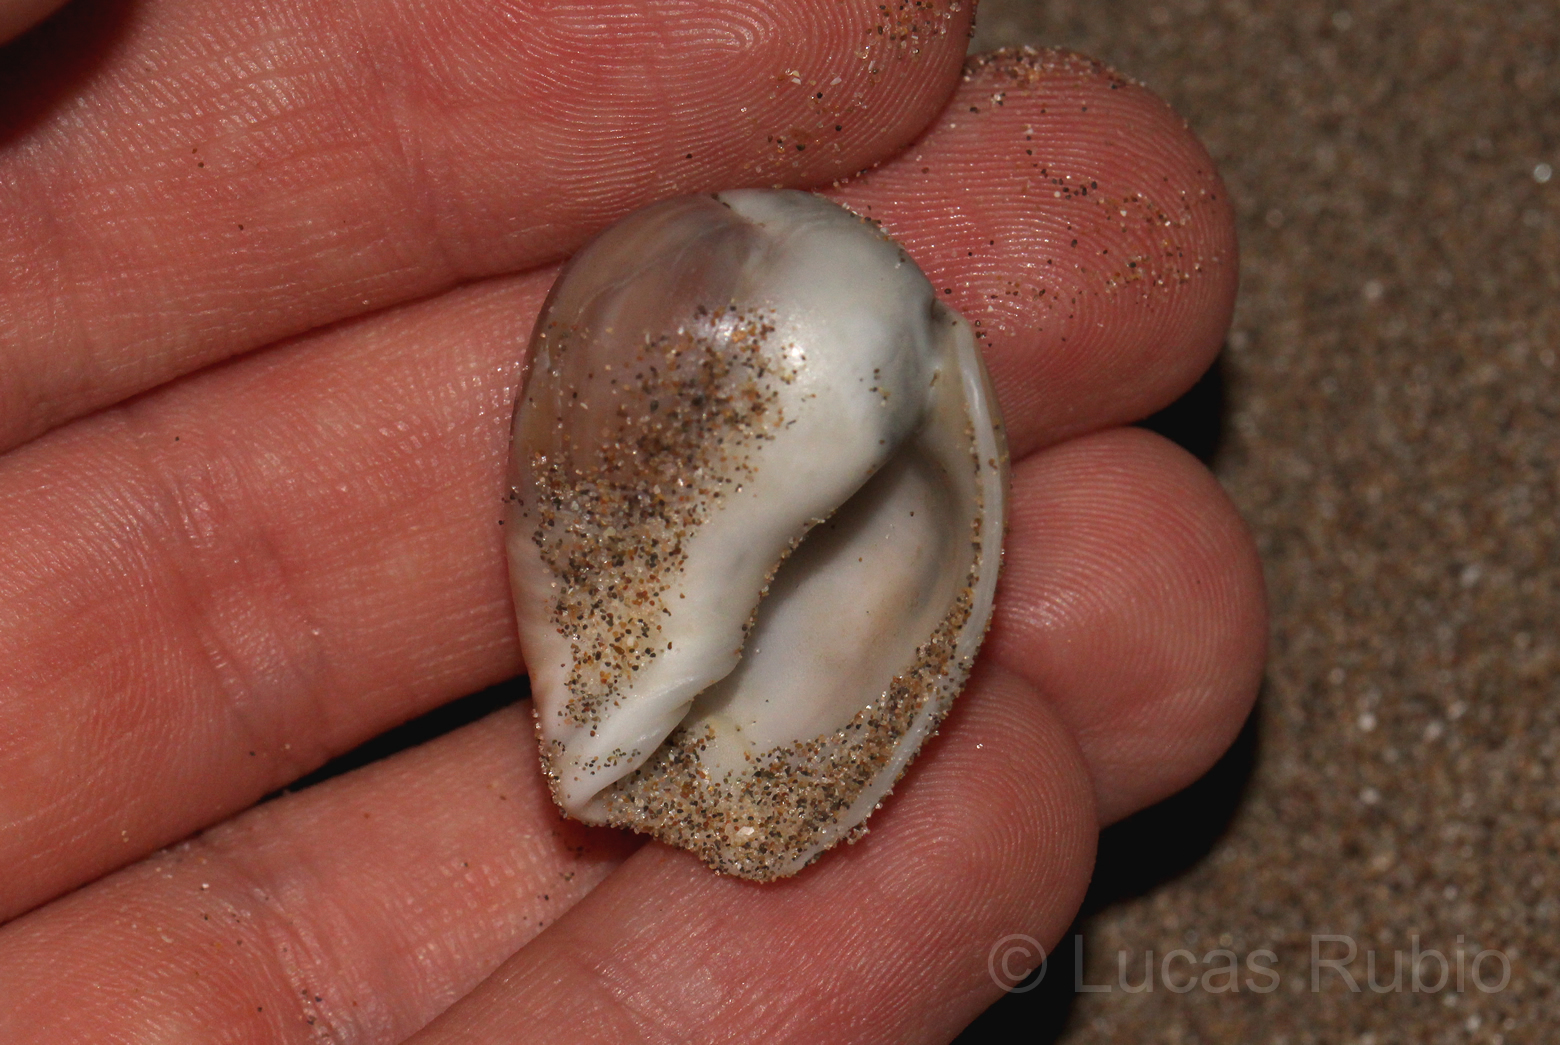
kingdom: Animalia
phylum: Mollusca
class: Gastropoda
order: Neogastropoda
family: Olividae
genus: Olivancillaria
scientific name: Olivancillaria deshayesiana
